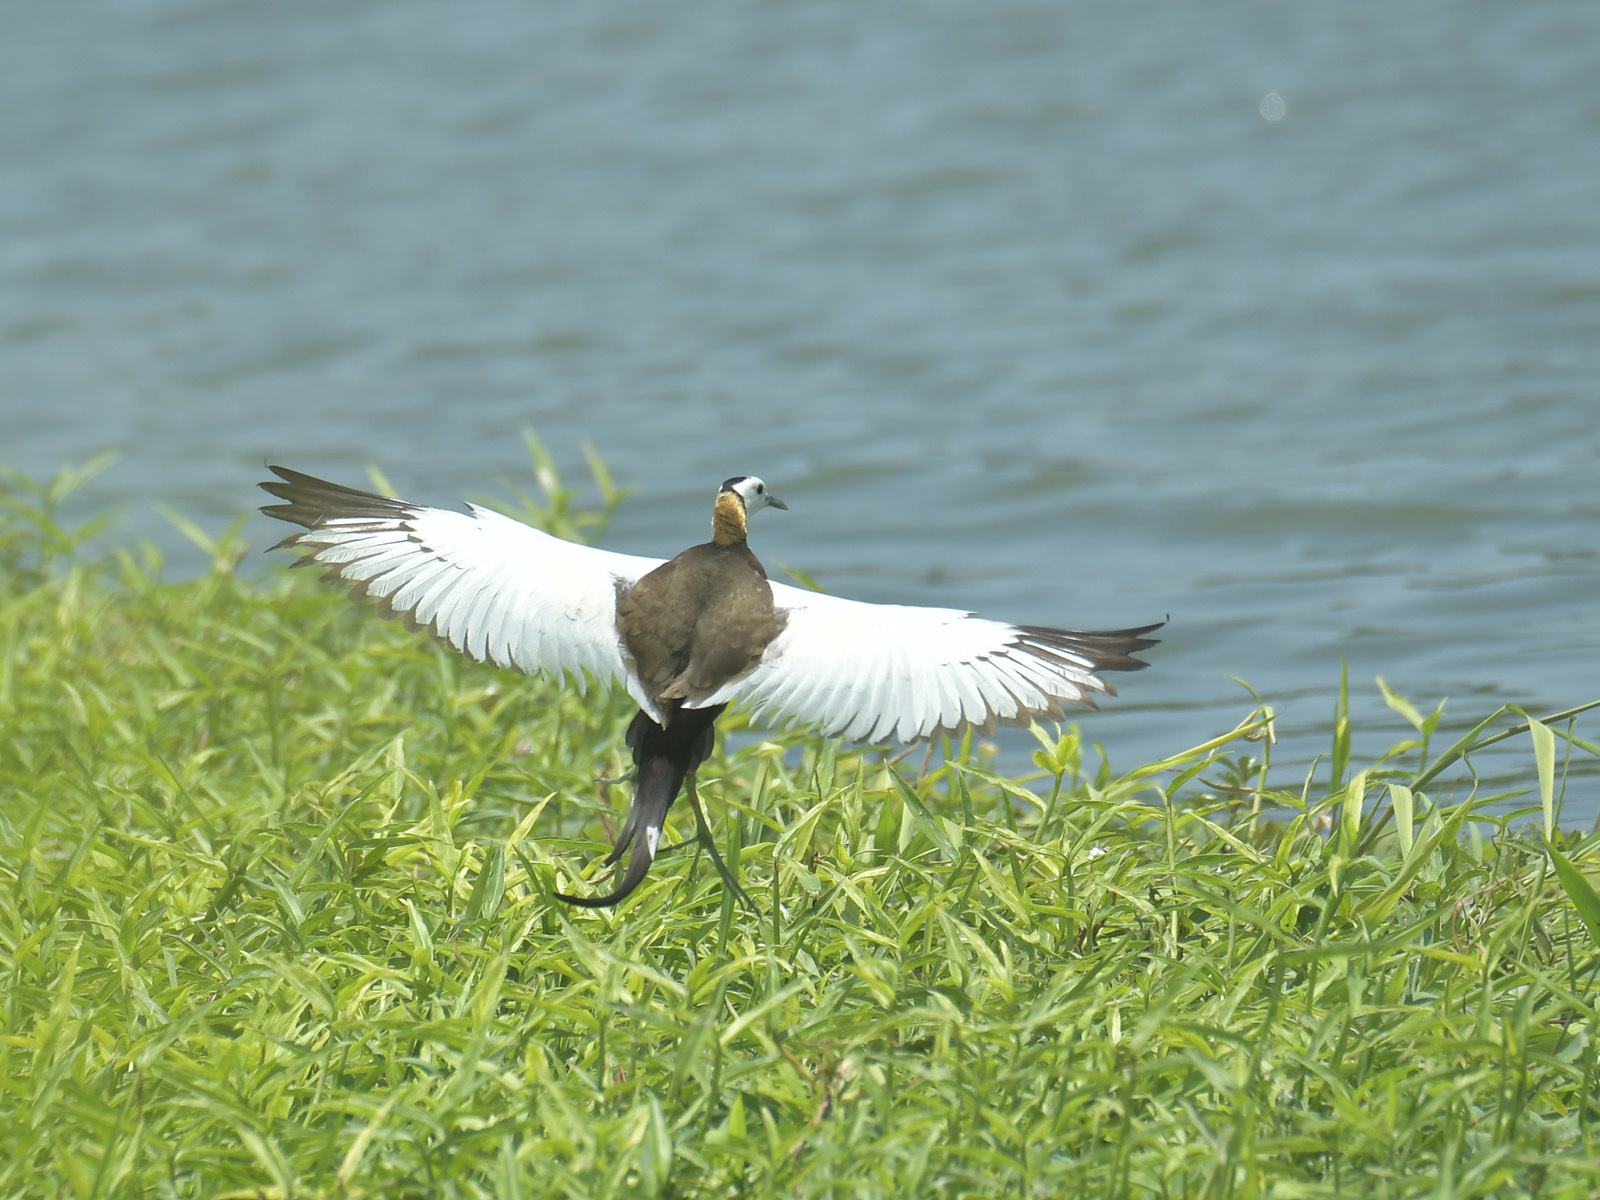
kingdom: Animalia
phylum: Chordata
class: Aves
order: Charadriiformes
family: Jacanidae
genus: Hydrophasianus
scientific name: Hydrophasianus chirurgus
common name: Pheasant-tailed jacana
